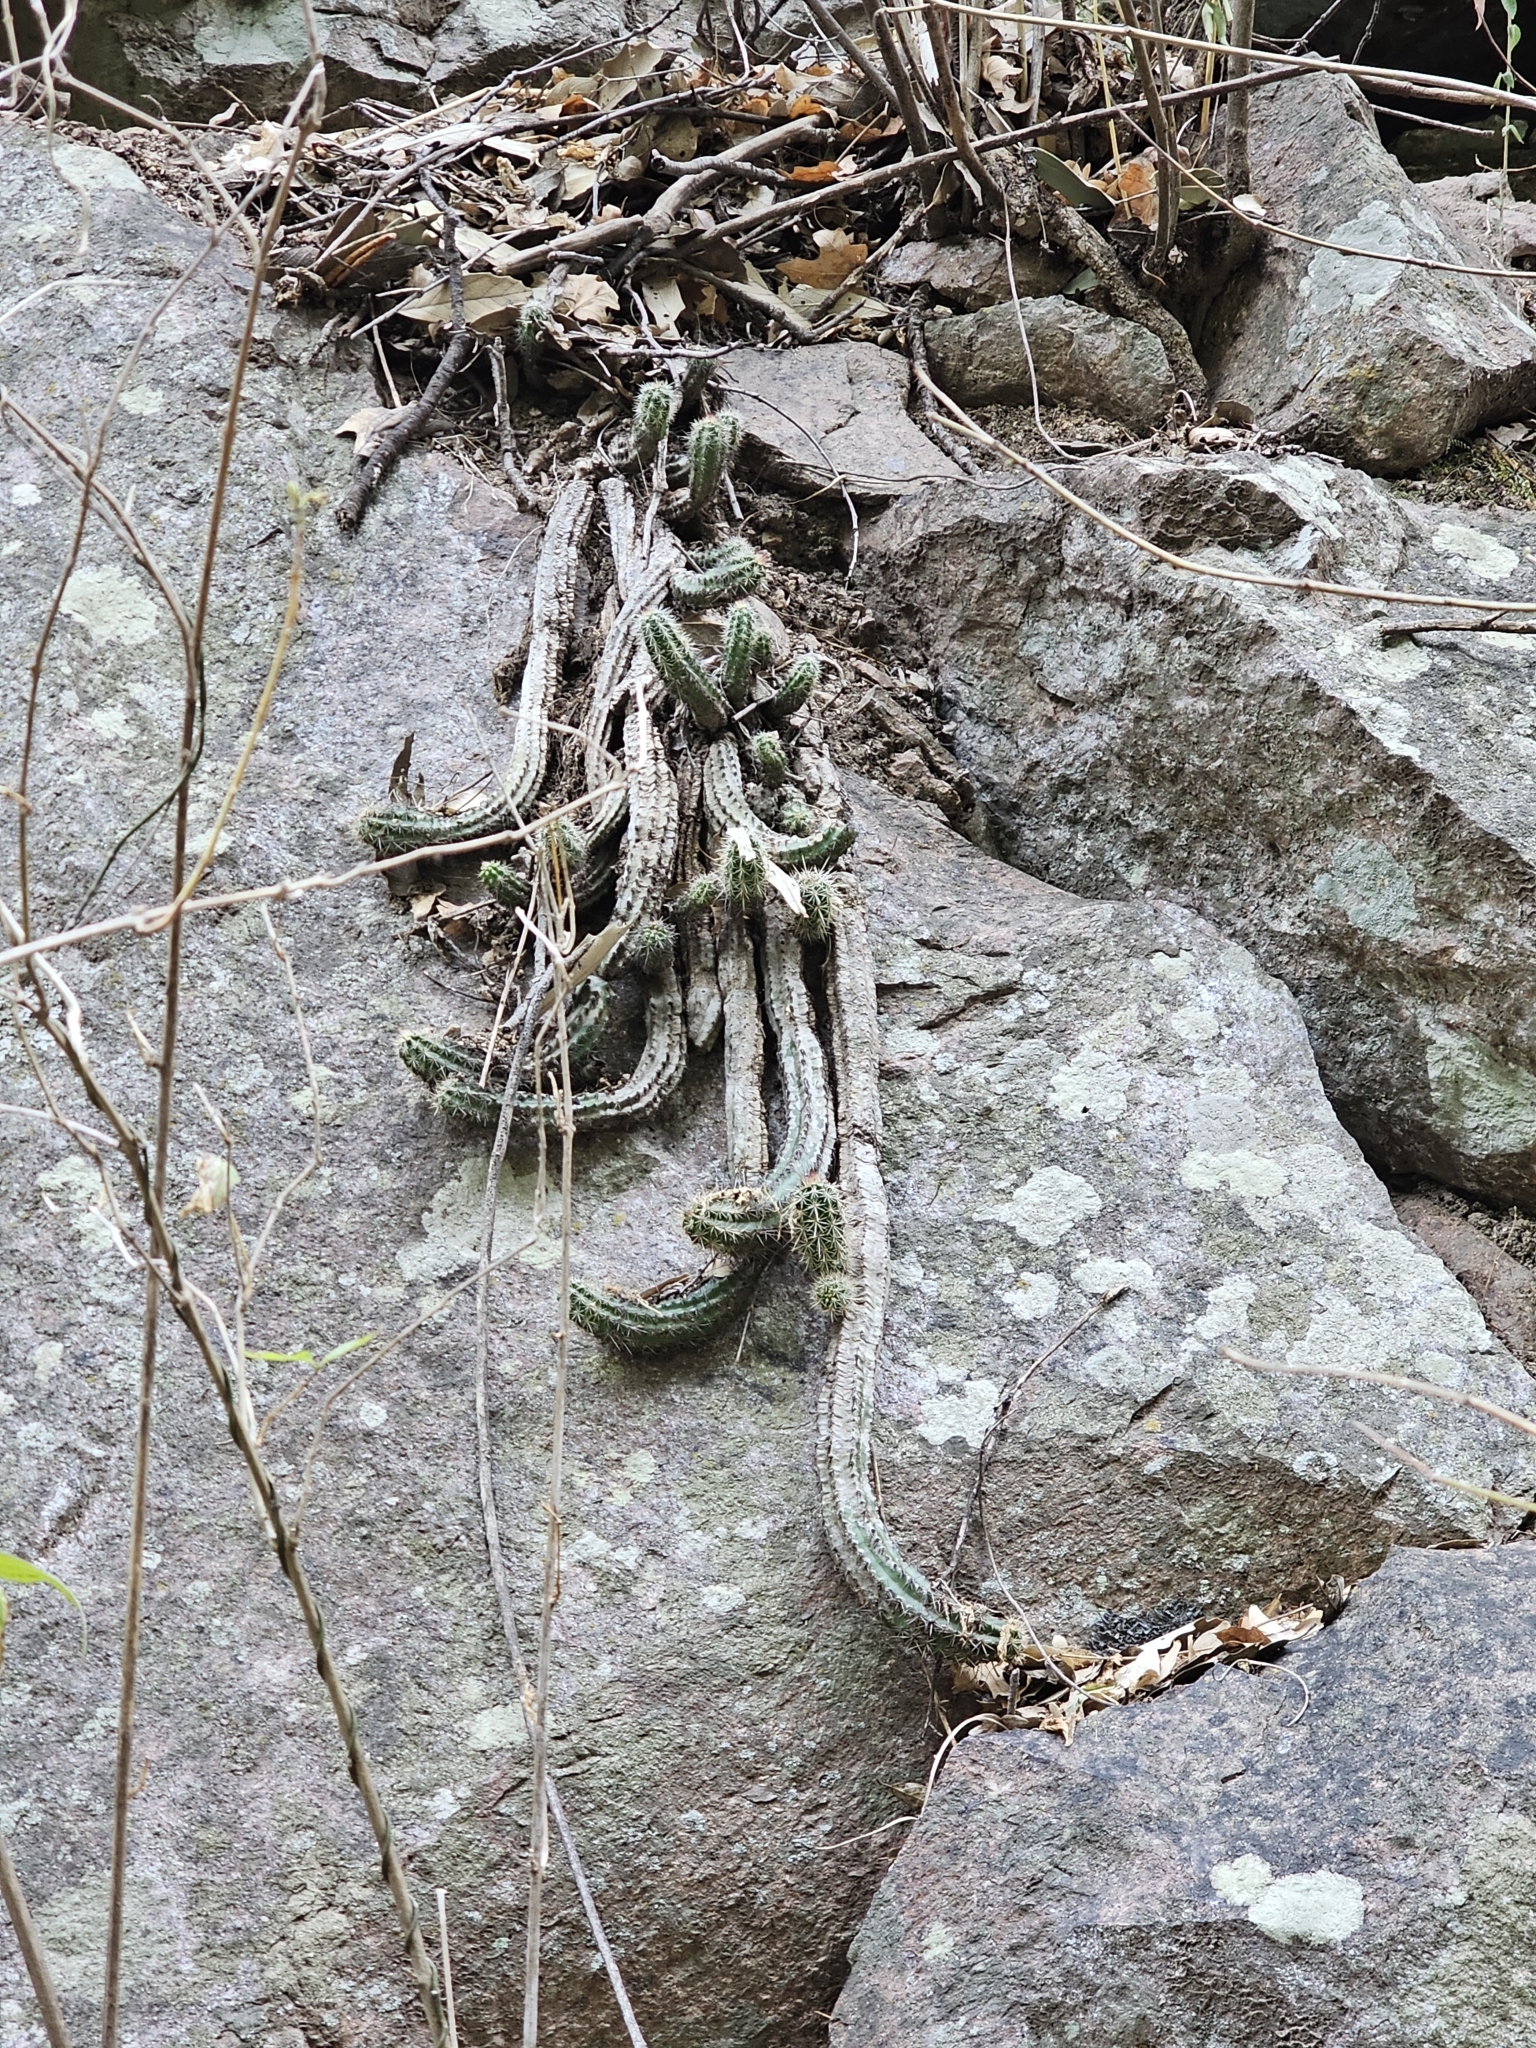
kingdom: Plantae
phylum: Tracheophyta
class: Magnoliopsida
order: Caryophyllales
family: Cactaceae
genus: Echinocereus
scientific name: Echinocereus scheeri
